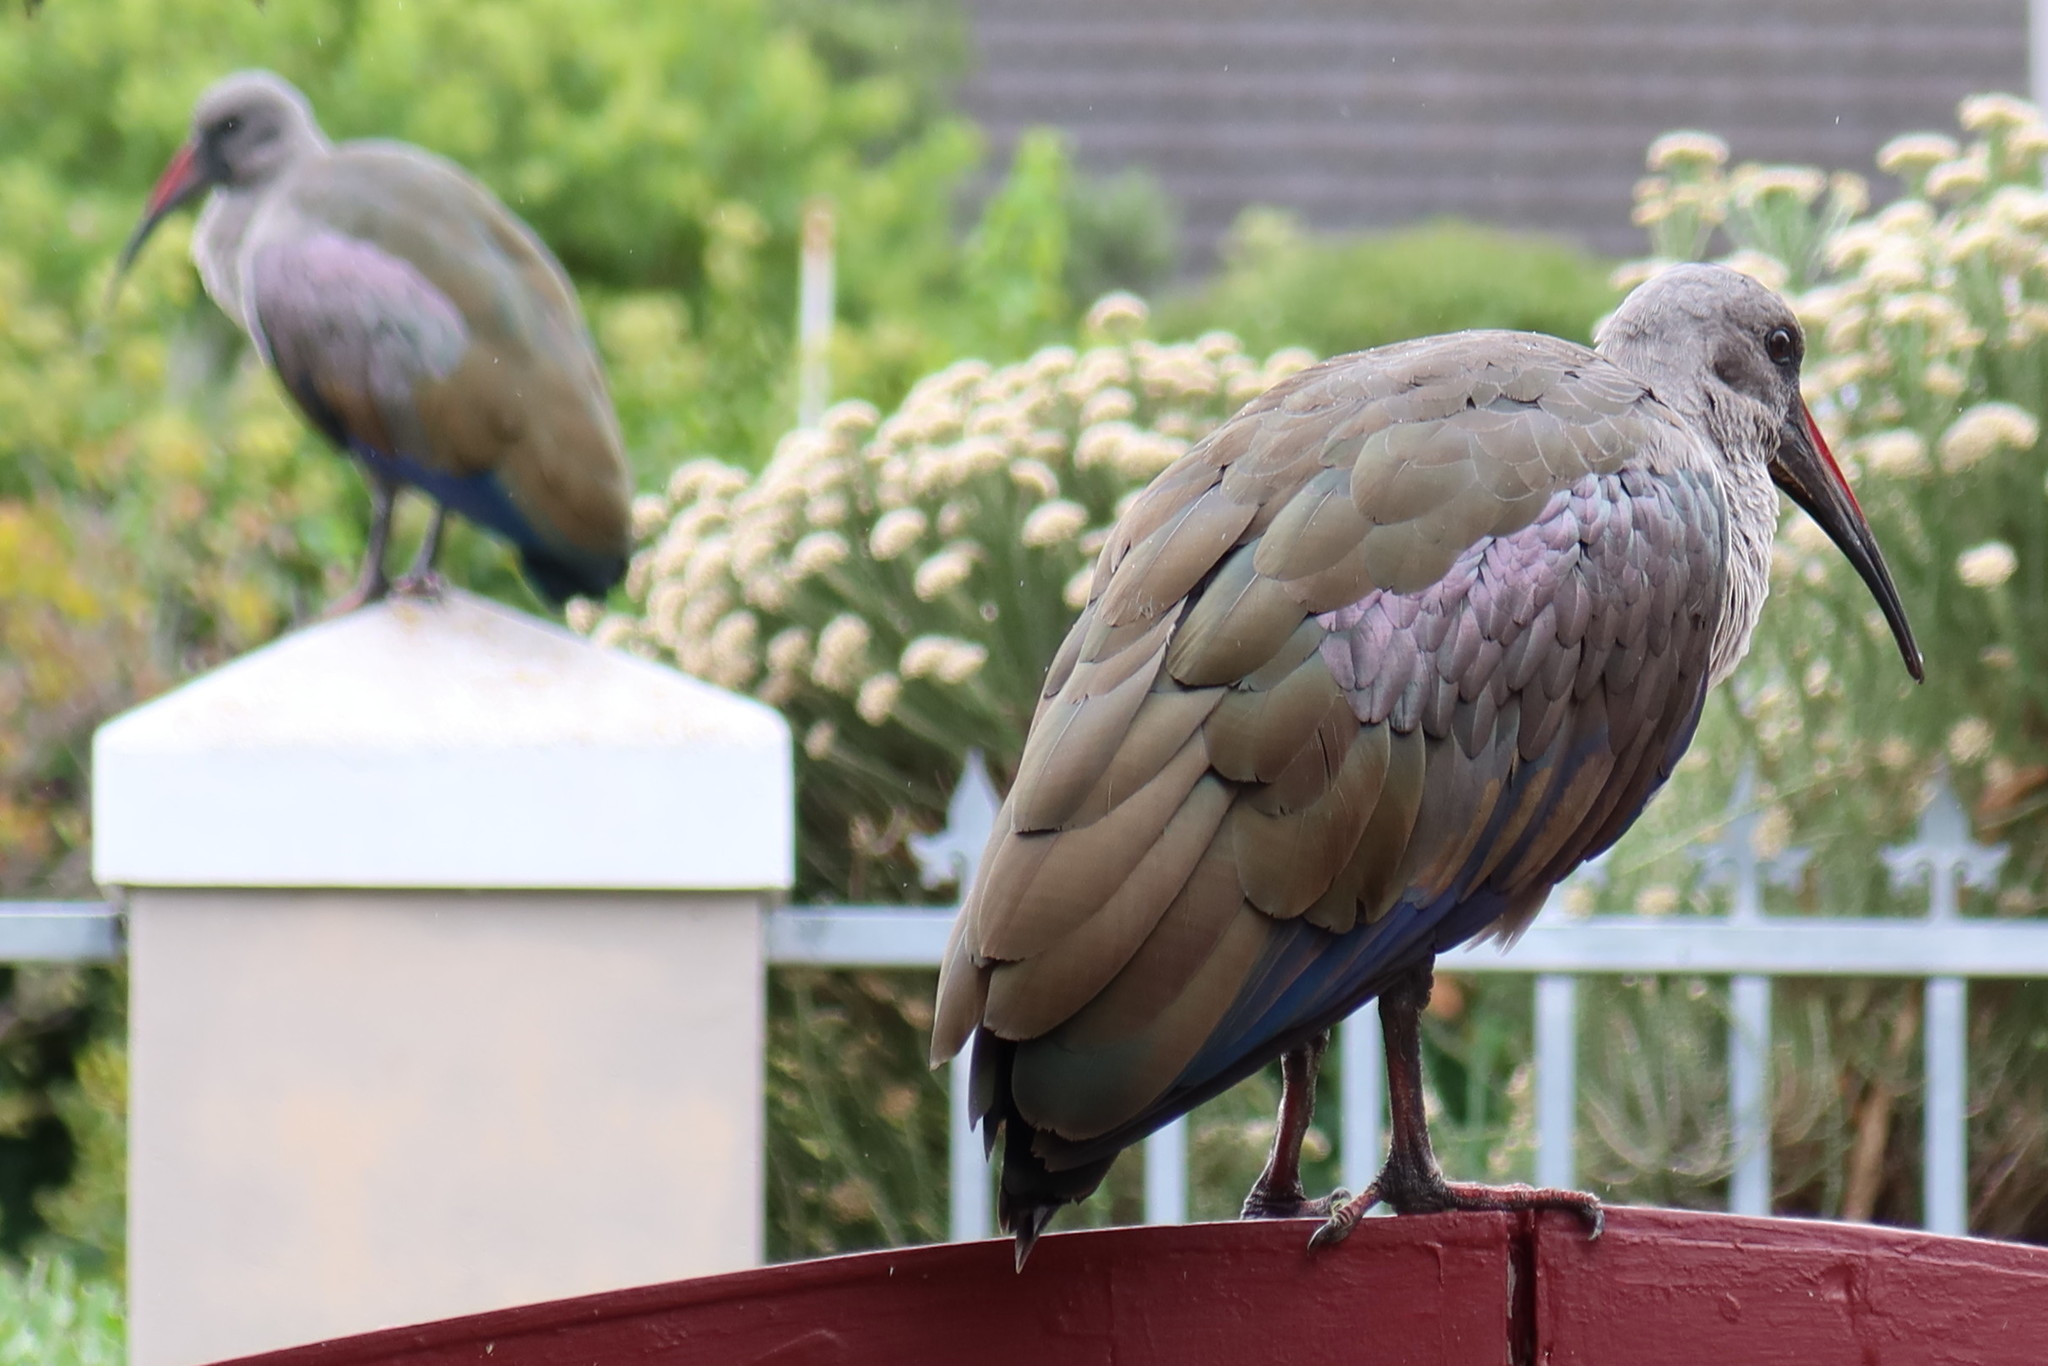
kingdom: Animalia
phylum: Chordata
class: Aves
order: Pelecaniformes
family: Threskiornithidae
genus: Bostrychia
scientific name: Bostrychia hagedash
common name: Hadada ibis
